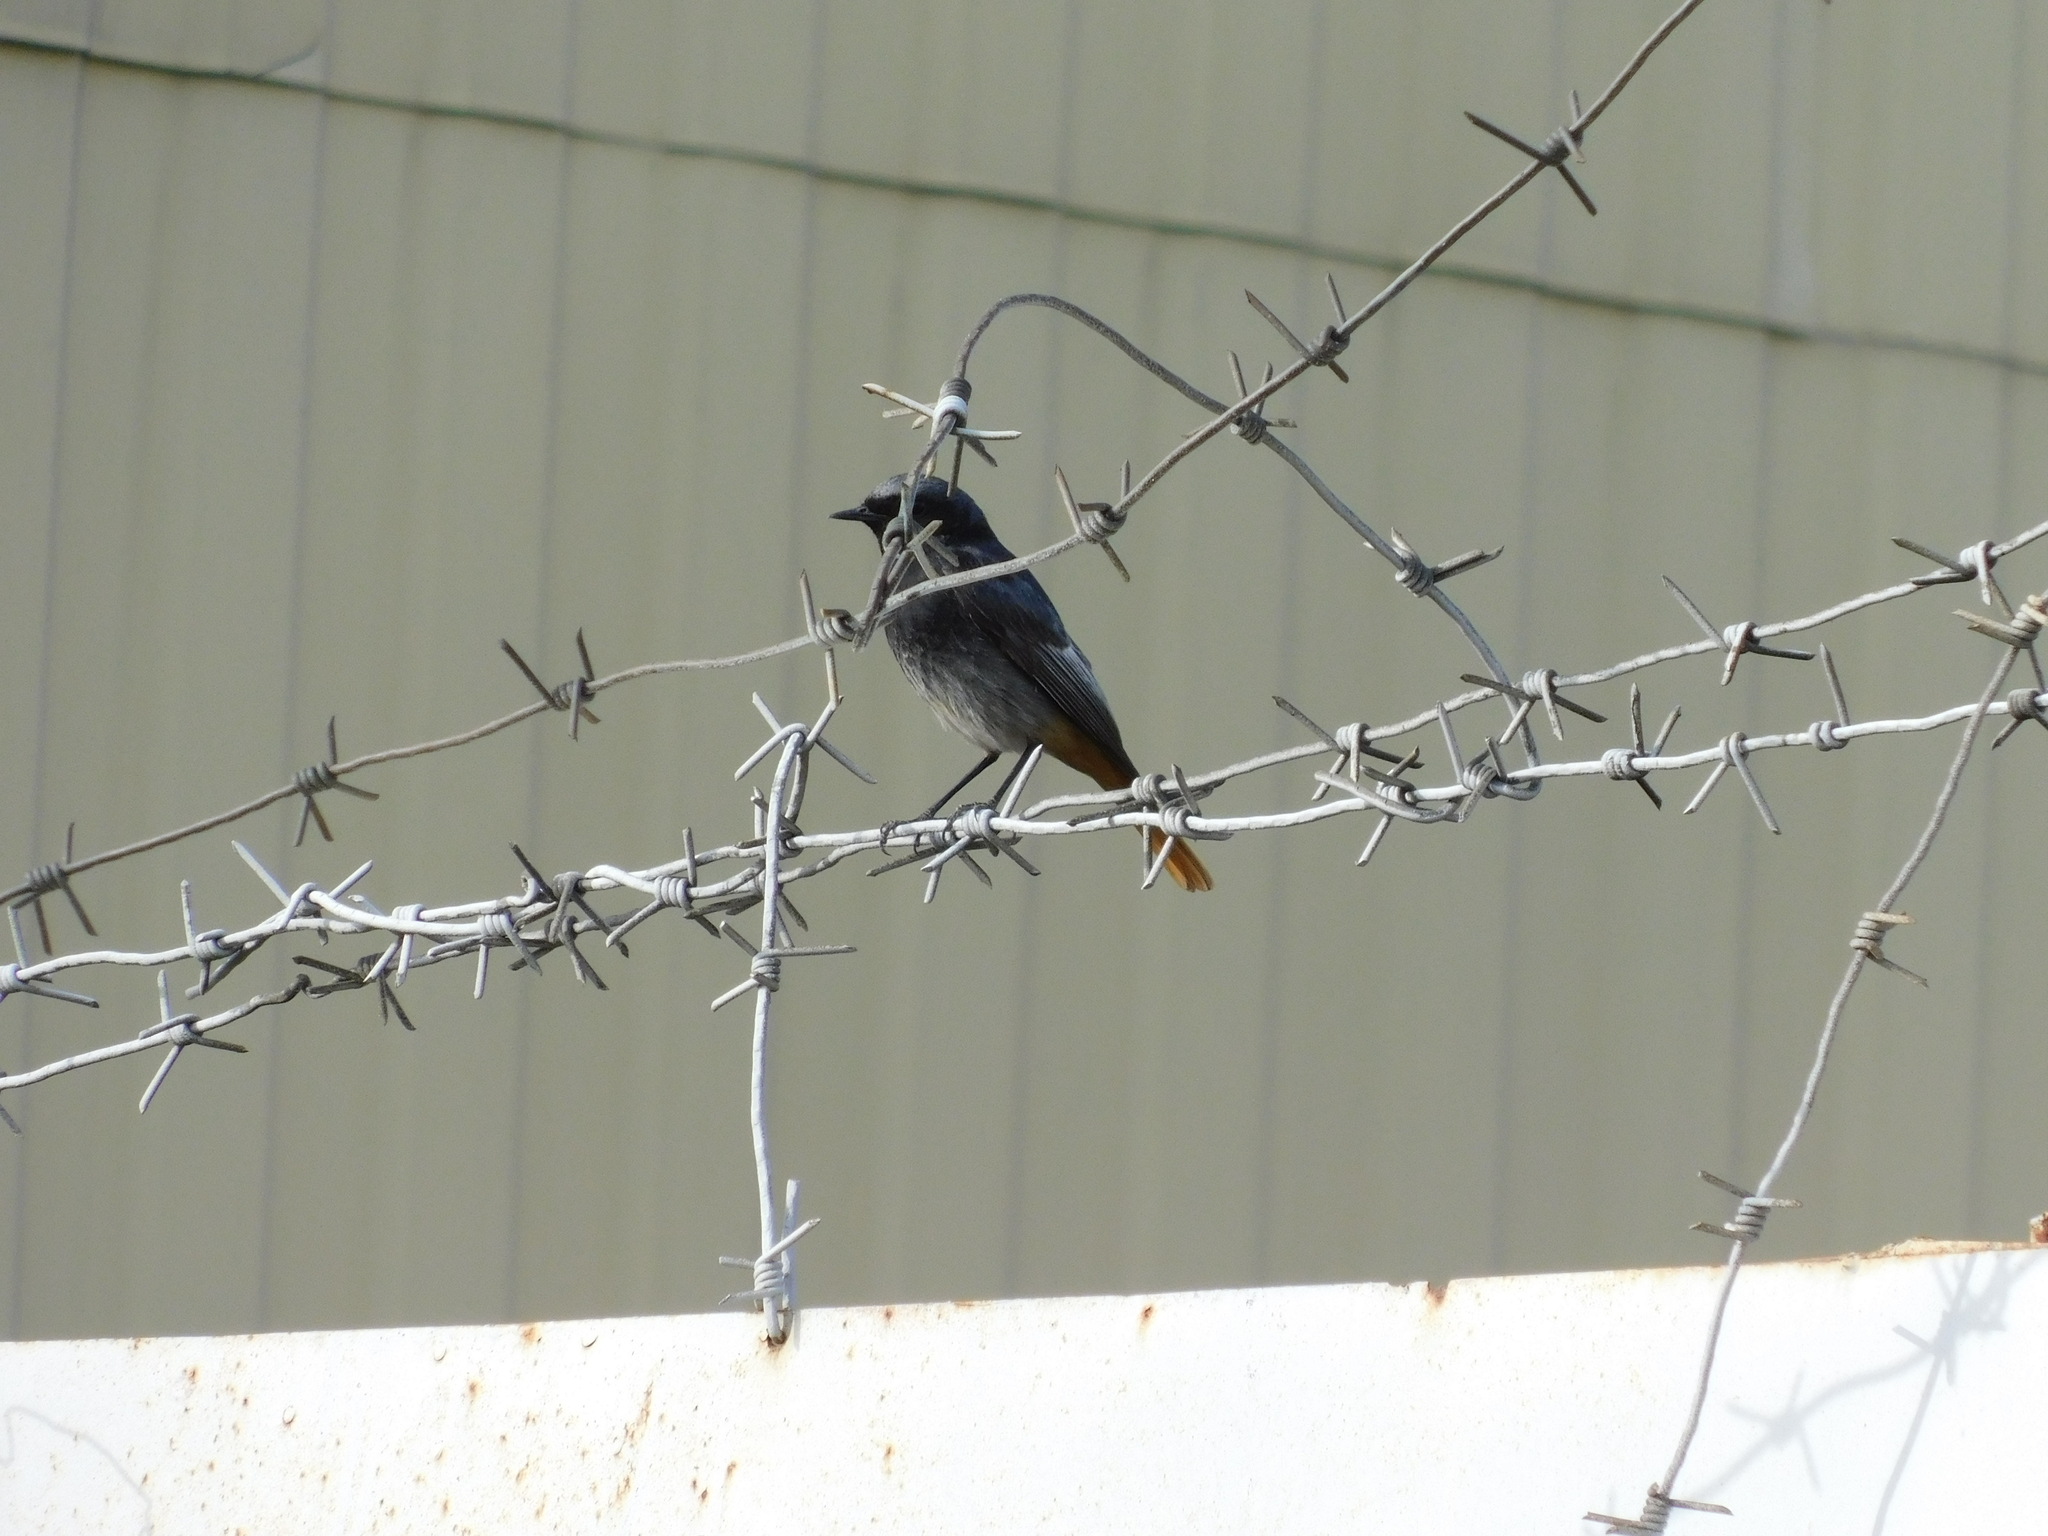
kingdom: Animalia
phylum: Chordata
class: Aves
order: Passeriformes
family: Muscicapidae
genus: Phoenicurus
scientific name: Phoenicurus ochruros
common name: Black redstart
